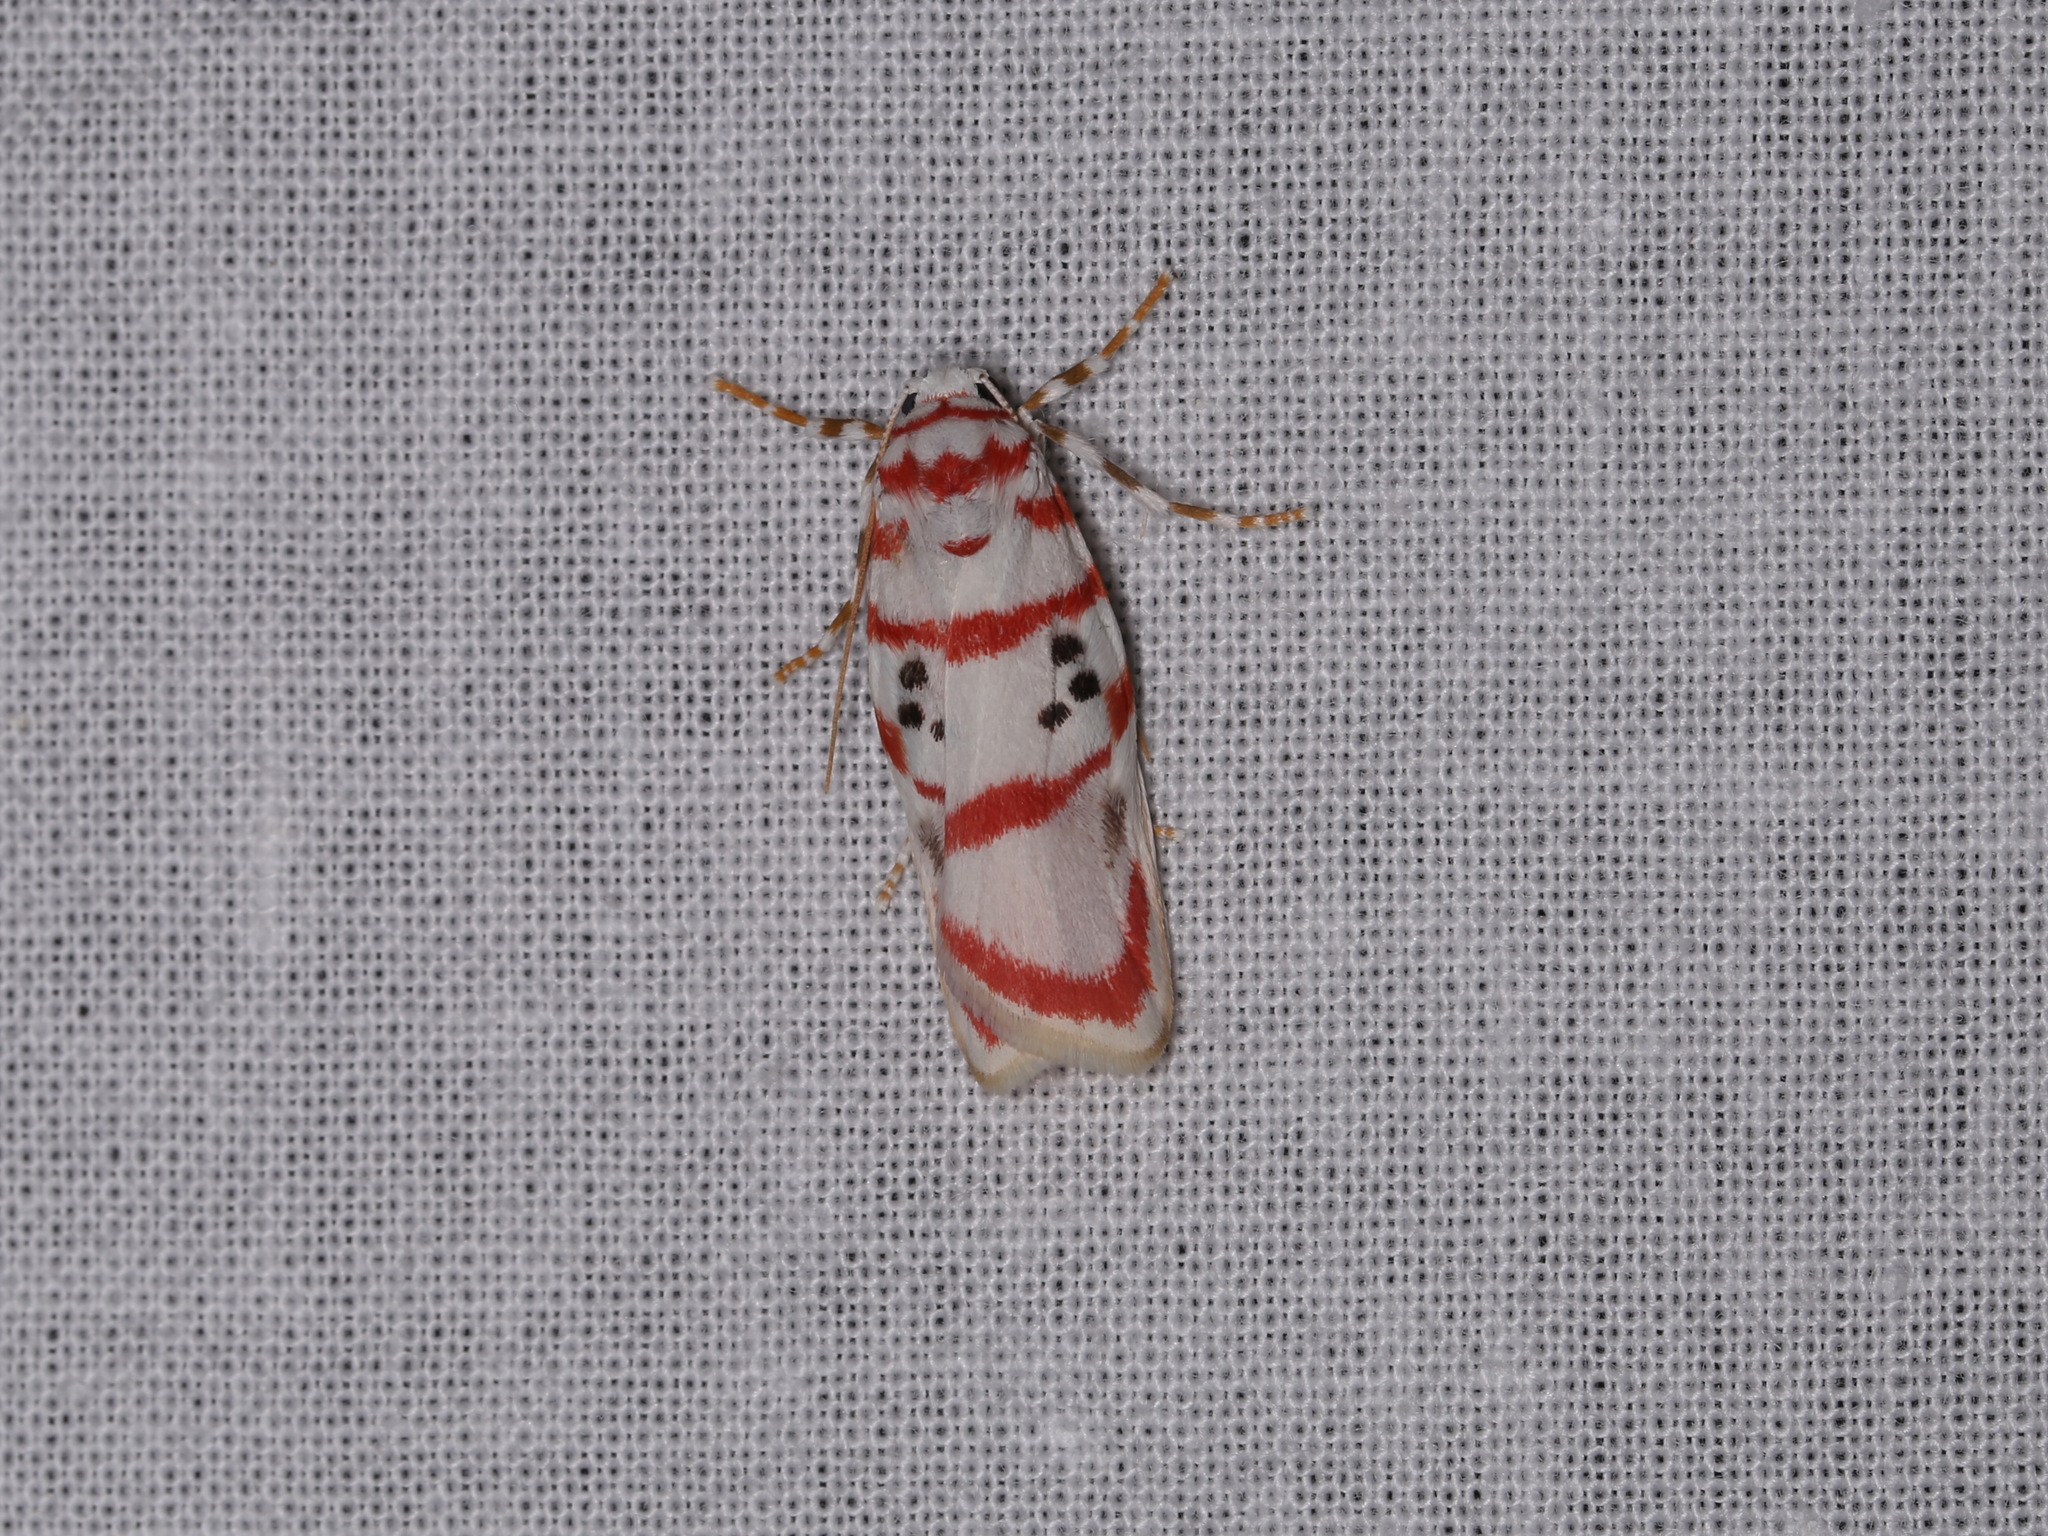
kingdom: Animalia
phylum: Arthropoda
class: Insecta
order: Lepidoptera
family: Erebidae
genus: Cyana
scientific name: Cyana obliquilineata
